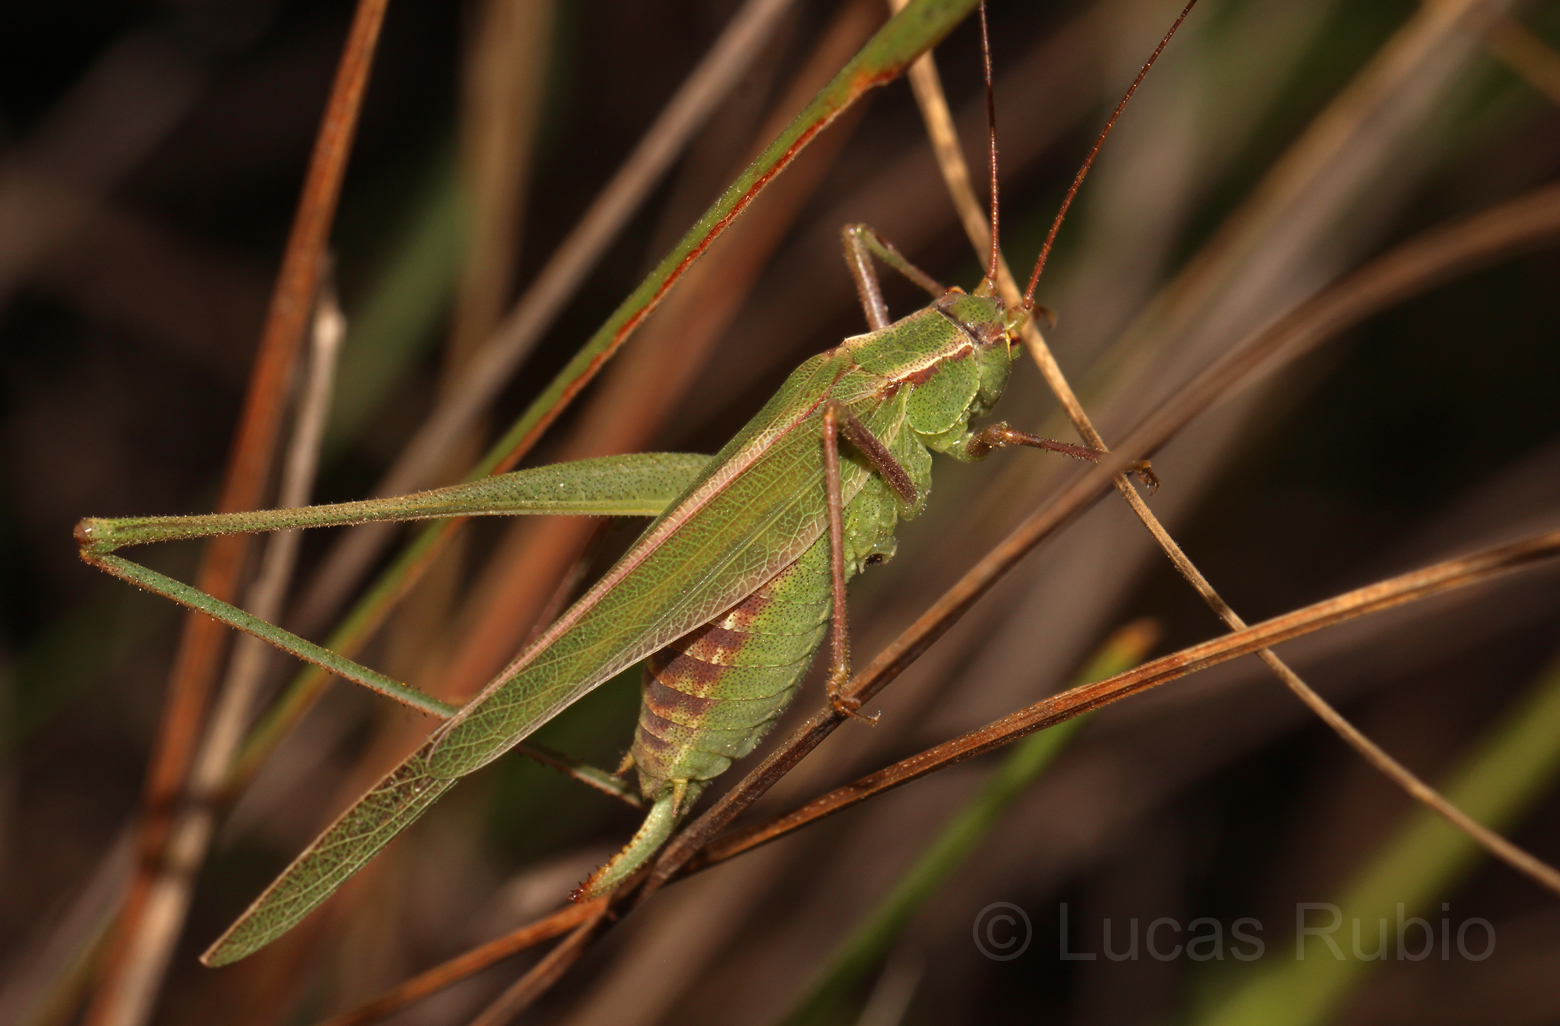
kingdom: Animalia
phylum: Arthropoda
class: Insecta
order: Orthoptera
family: Tettigoniidae
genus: Burgilis
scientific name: Burgilis curta
